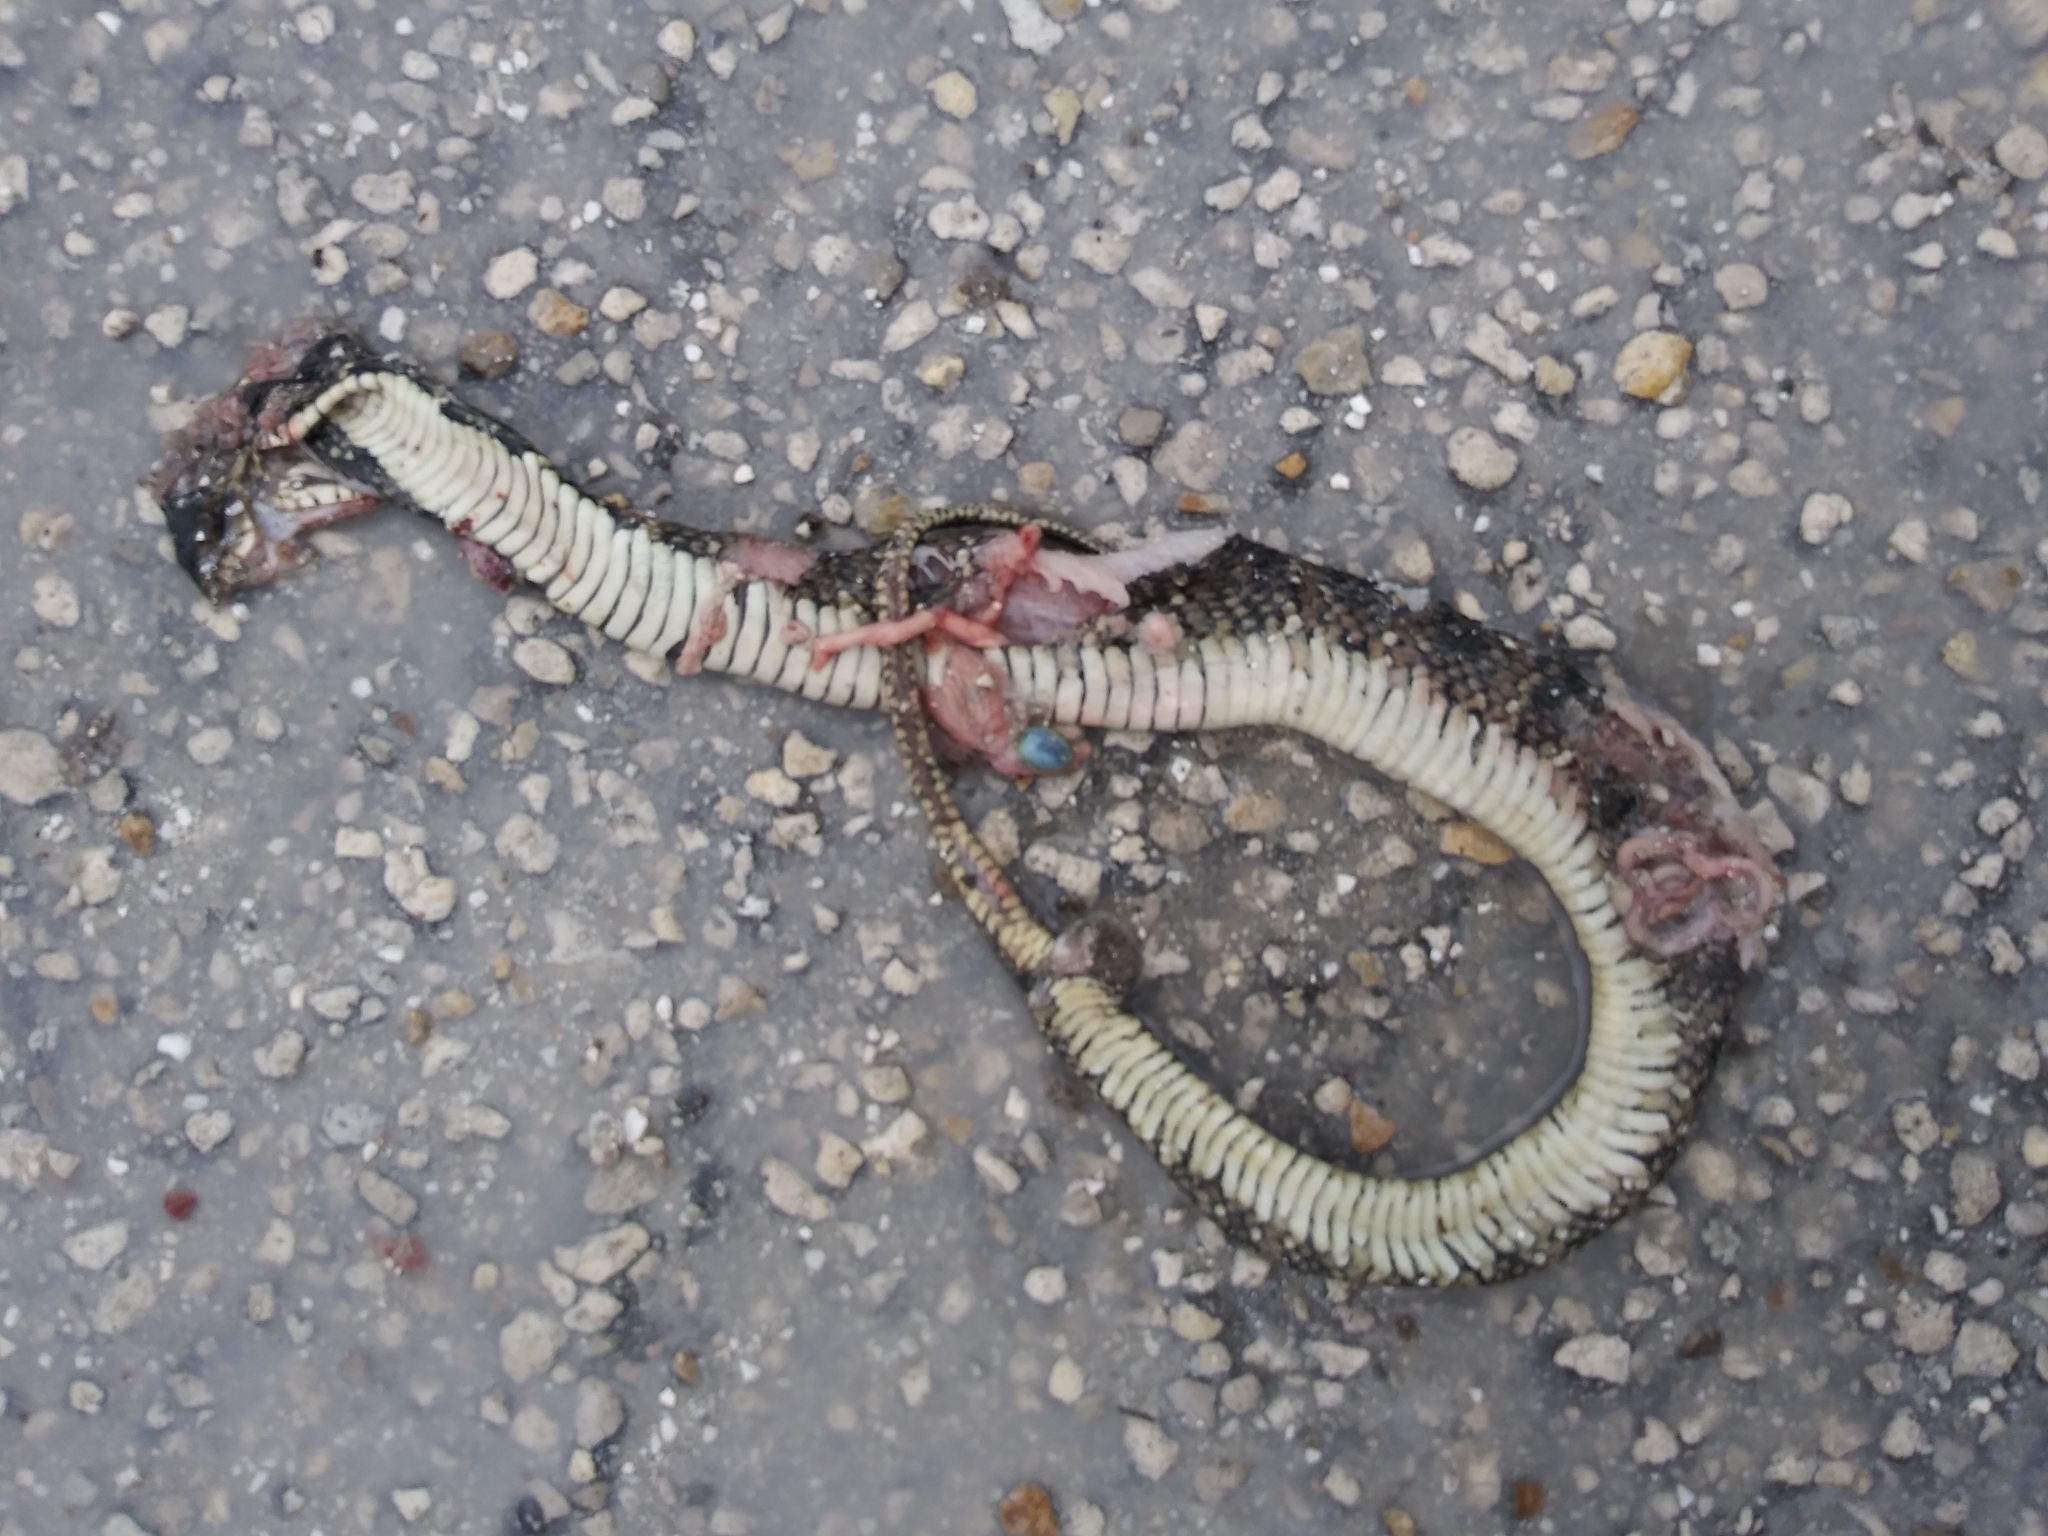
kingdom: Animalia
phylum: Chordata
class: Squamata
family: Colubridae
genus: Nerodia
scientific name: Nerodia fasciata
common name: Southern water snake
